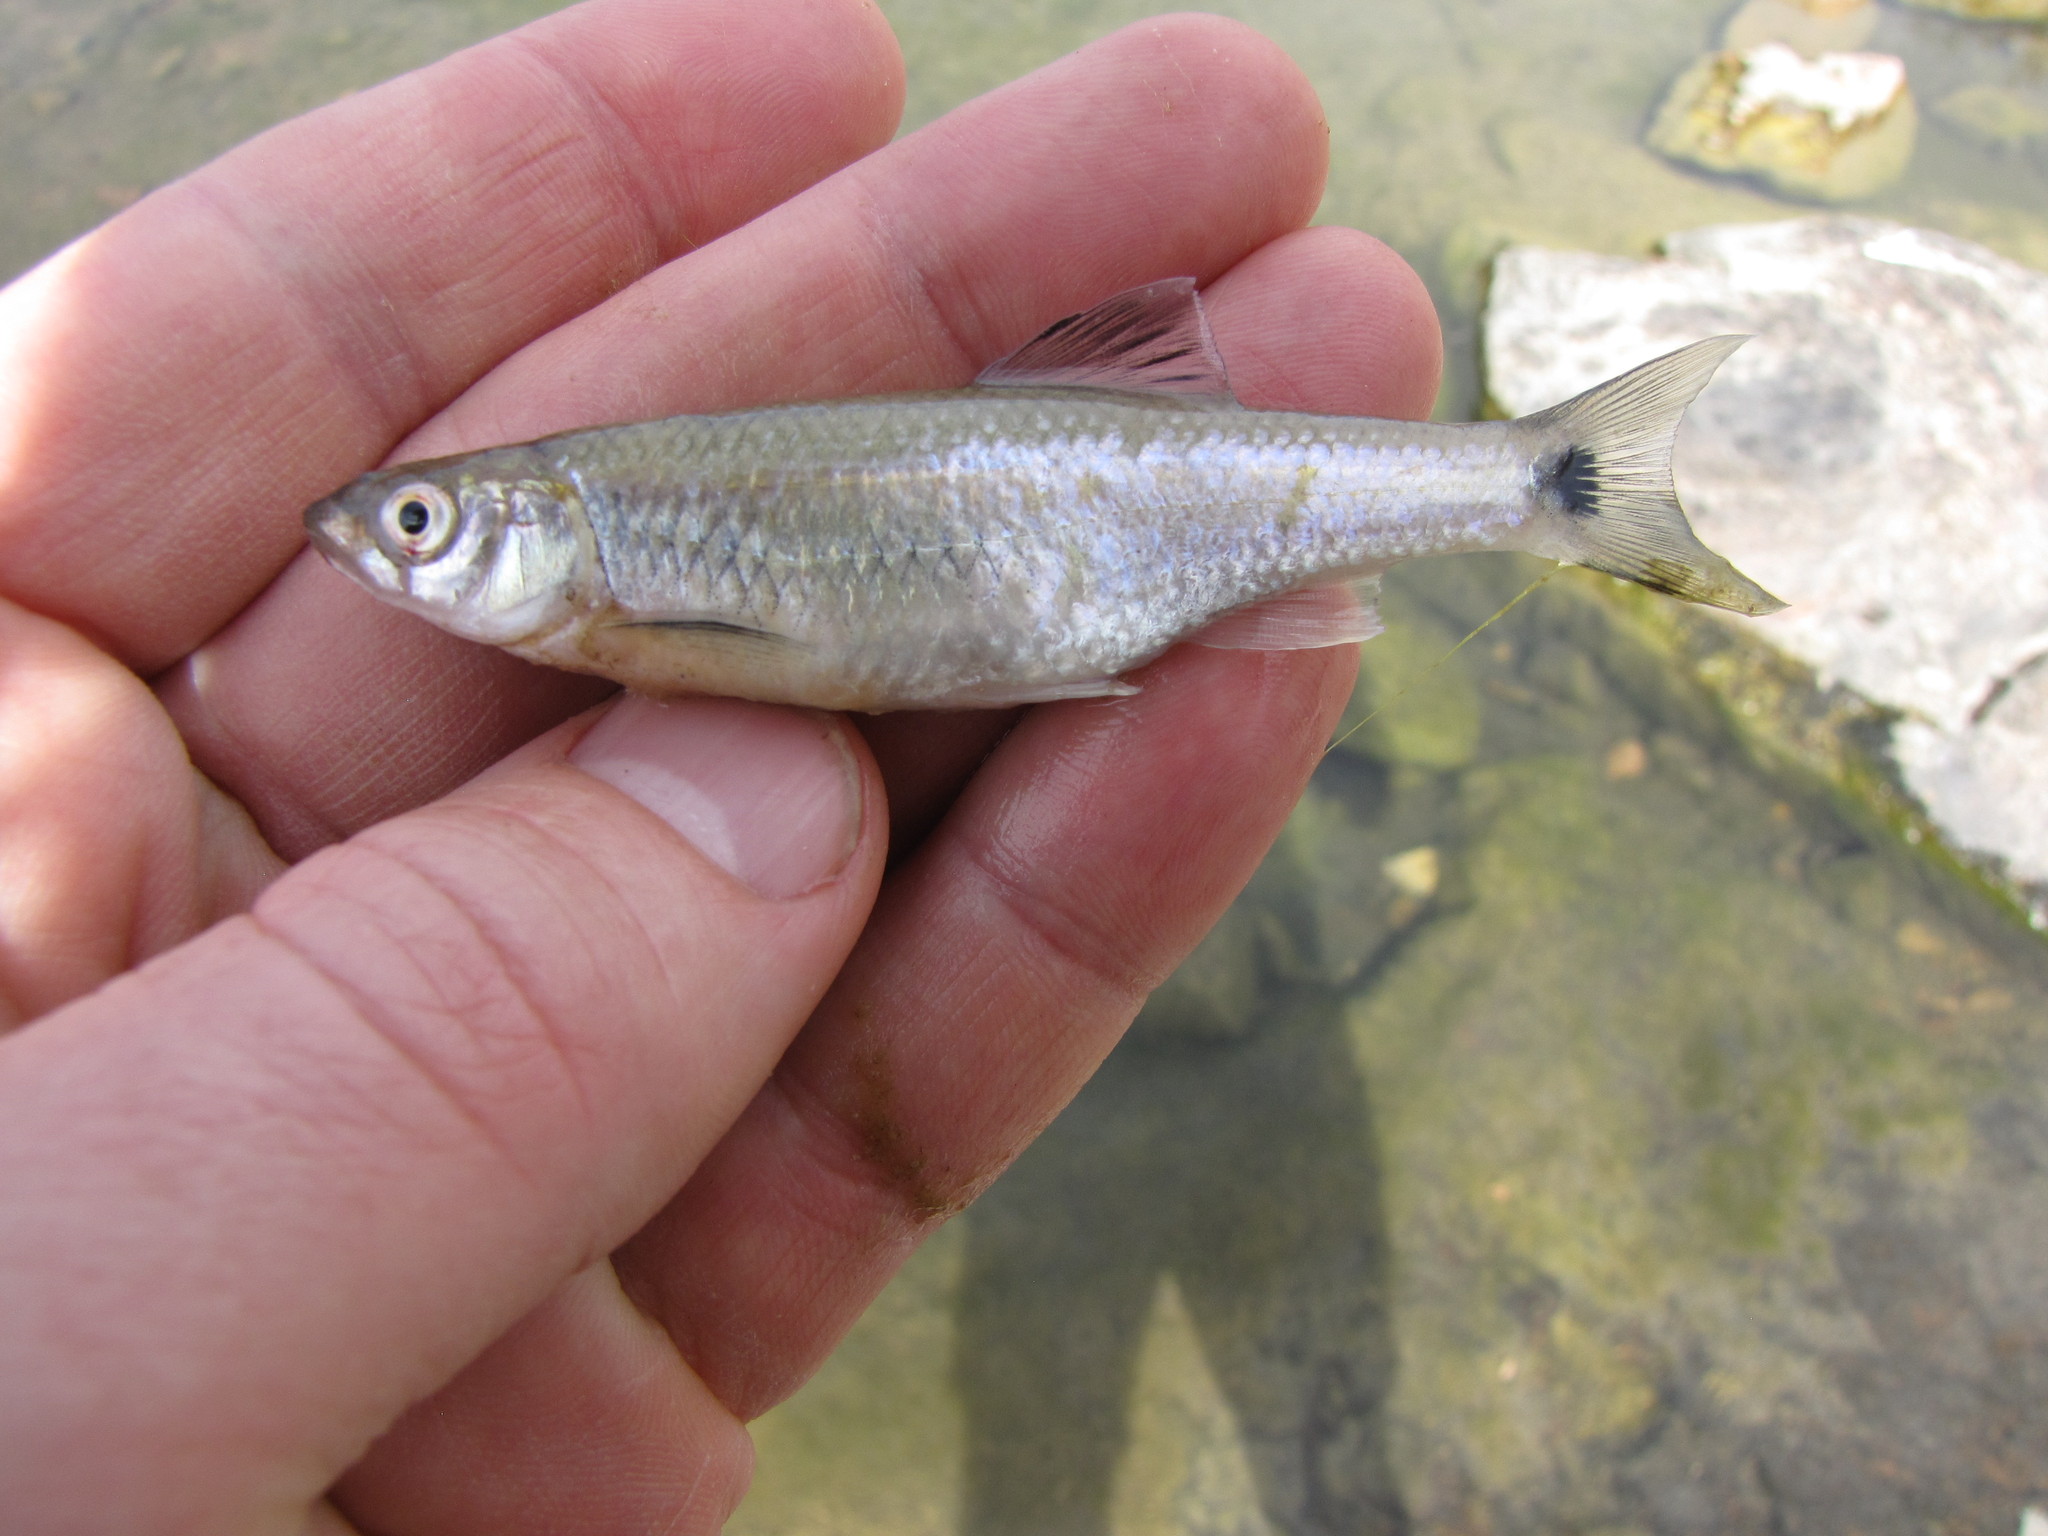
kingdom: Animalia
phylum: Chordata
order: Cypriniformes
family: Cyprinidae
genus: Cyprinella
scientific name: Cyprinella venusta
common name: Blacktail shiner
